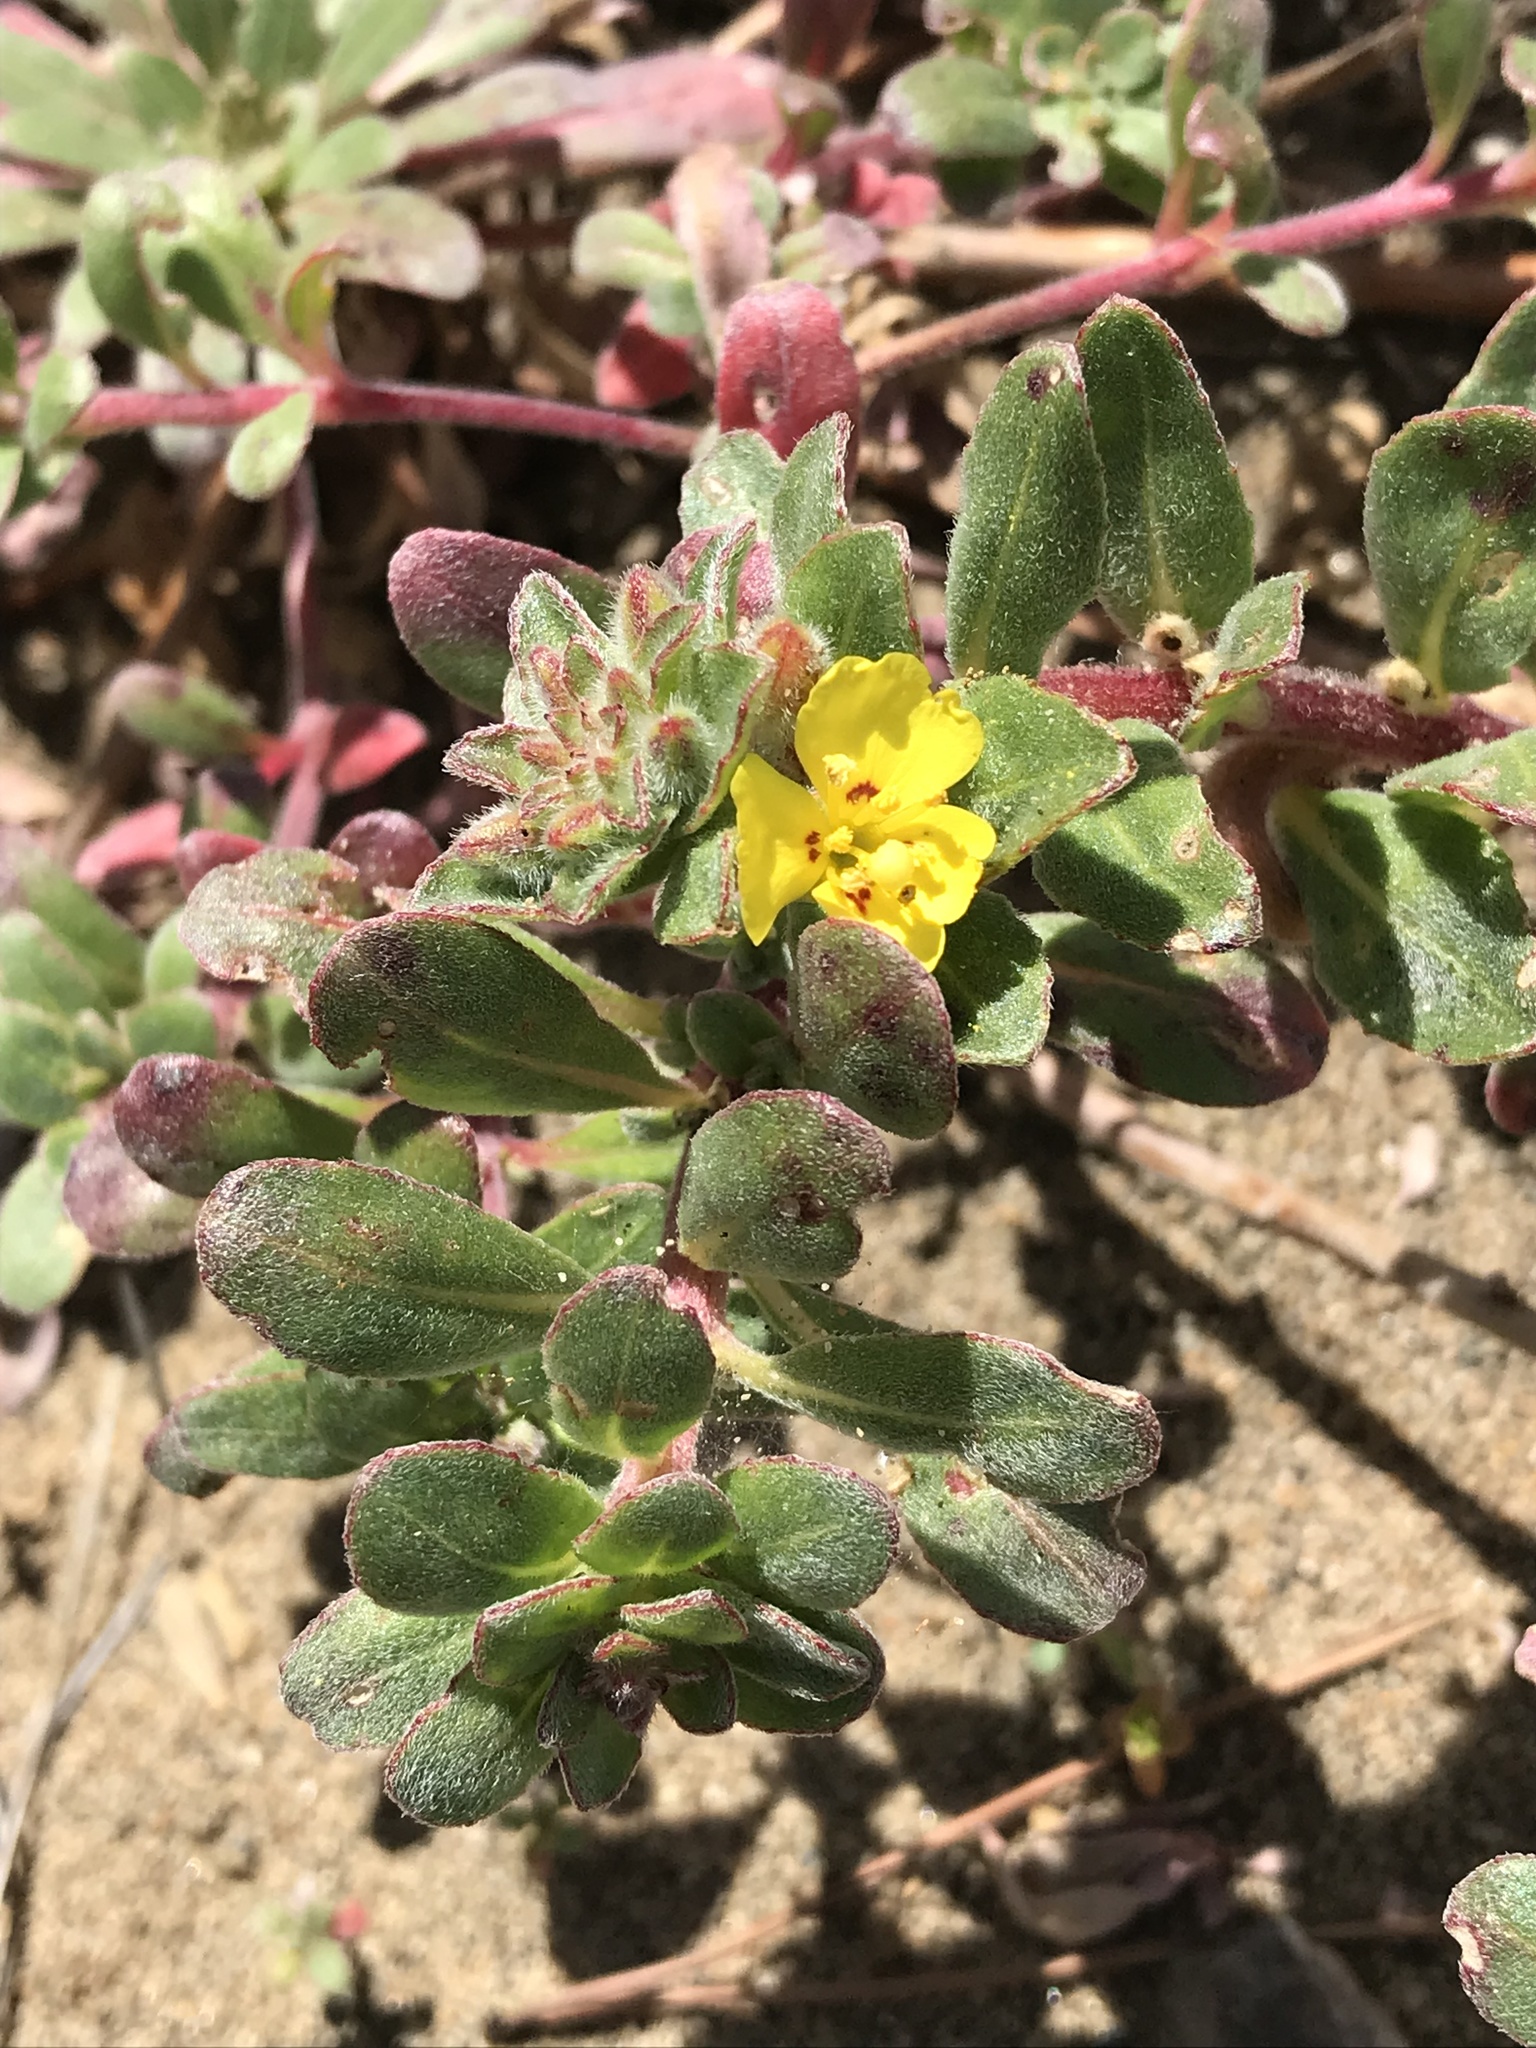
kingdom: Plantae
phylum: Tracheophyta
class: Magnoliopsida
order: Myrtales
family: Onagraceae
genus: Camissoniopsis
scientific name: Camissoniopsis cheiranthifolia
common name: Beach suncup
